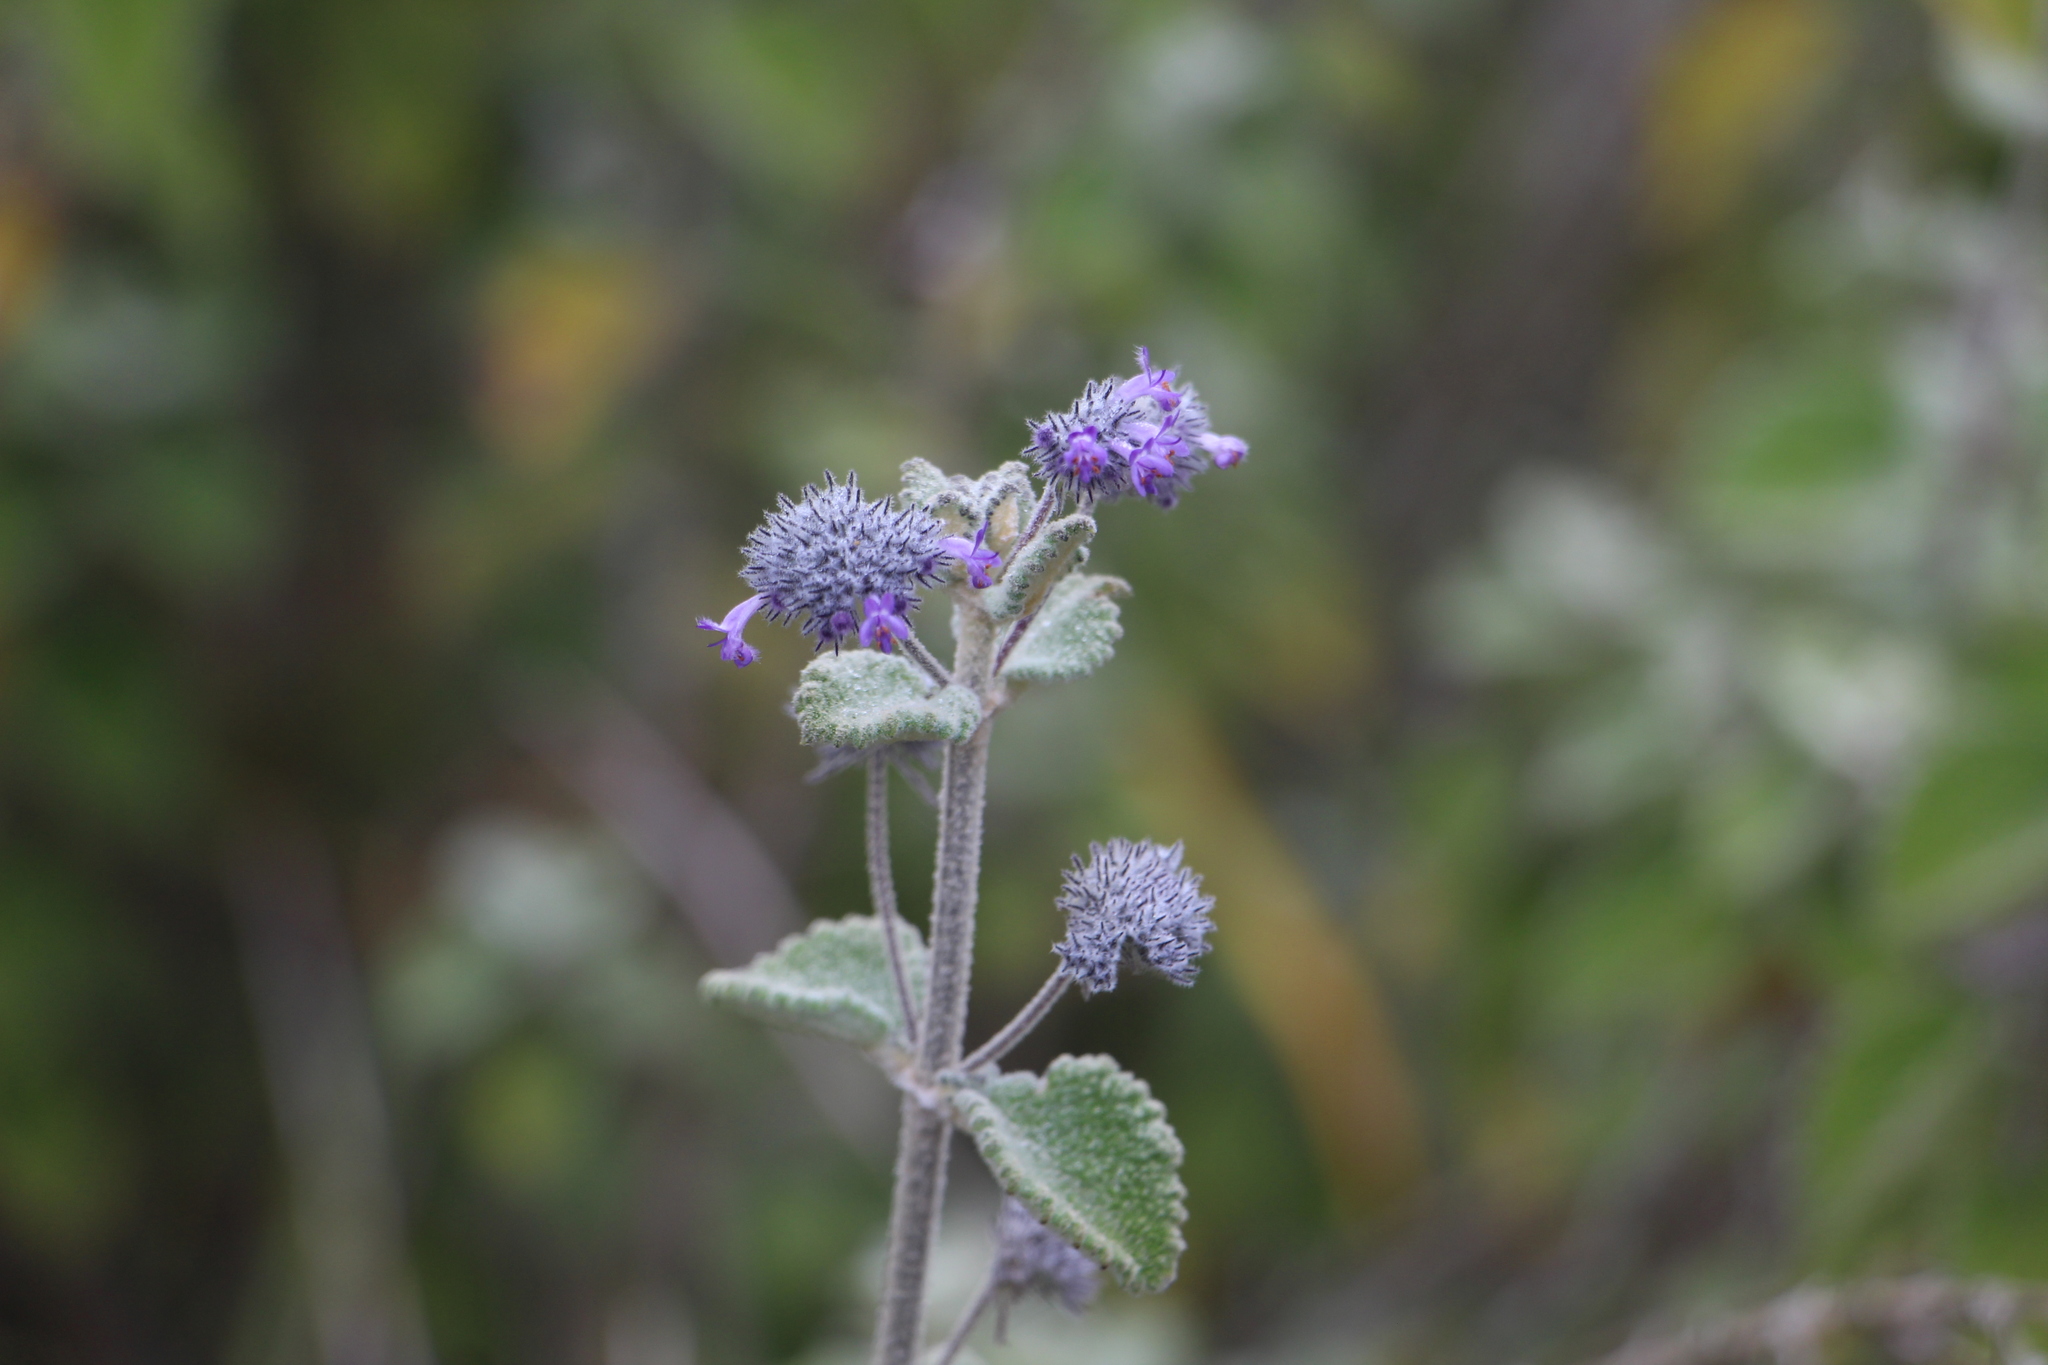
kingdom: Plantae
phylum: Tracheophyta
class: Magnoliopsida
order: Lamiales
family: Lamiaceae
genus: Mesosphaerum
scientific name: Mesosphaerum perbullatum
